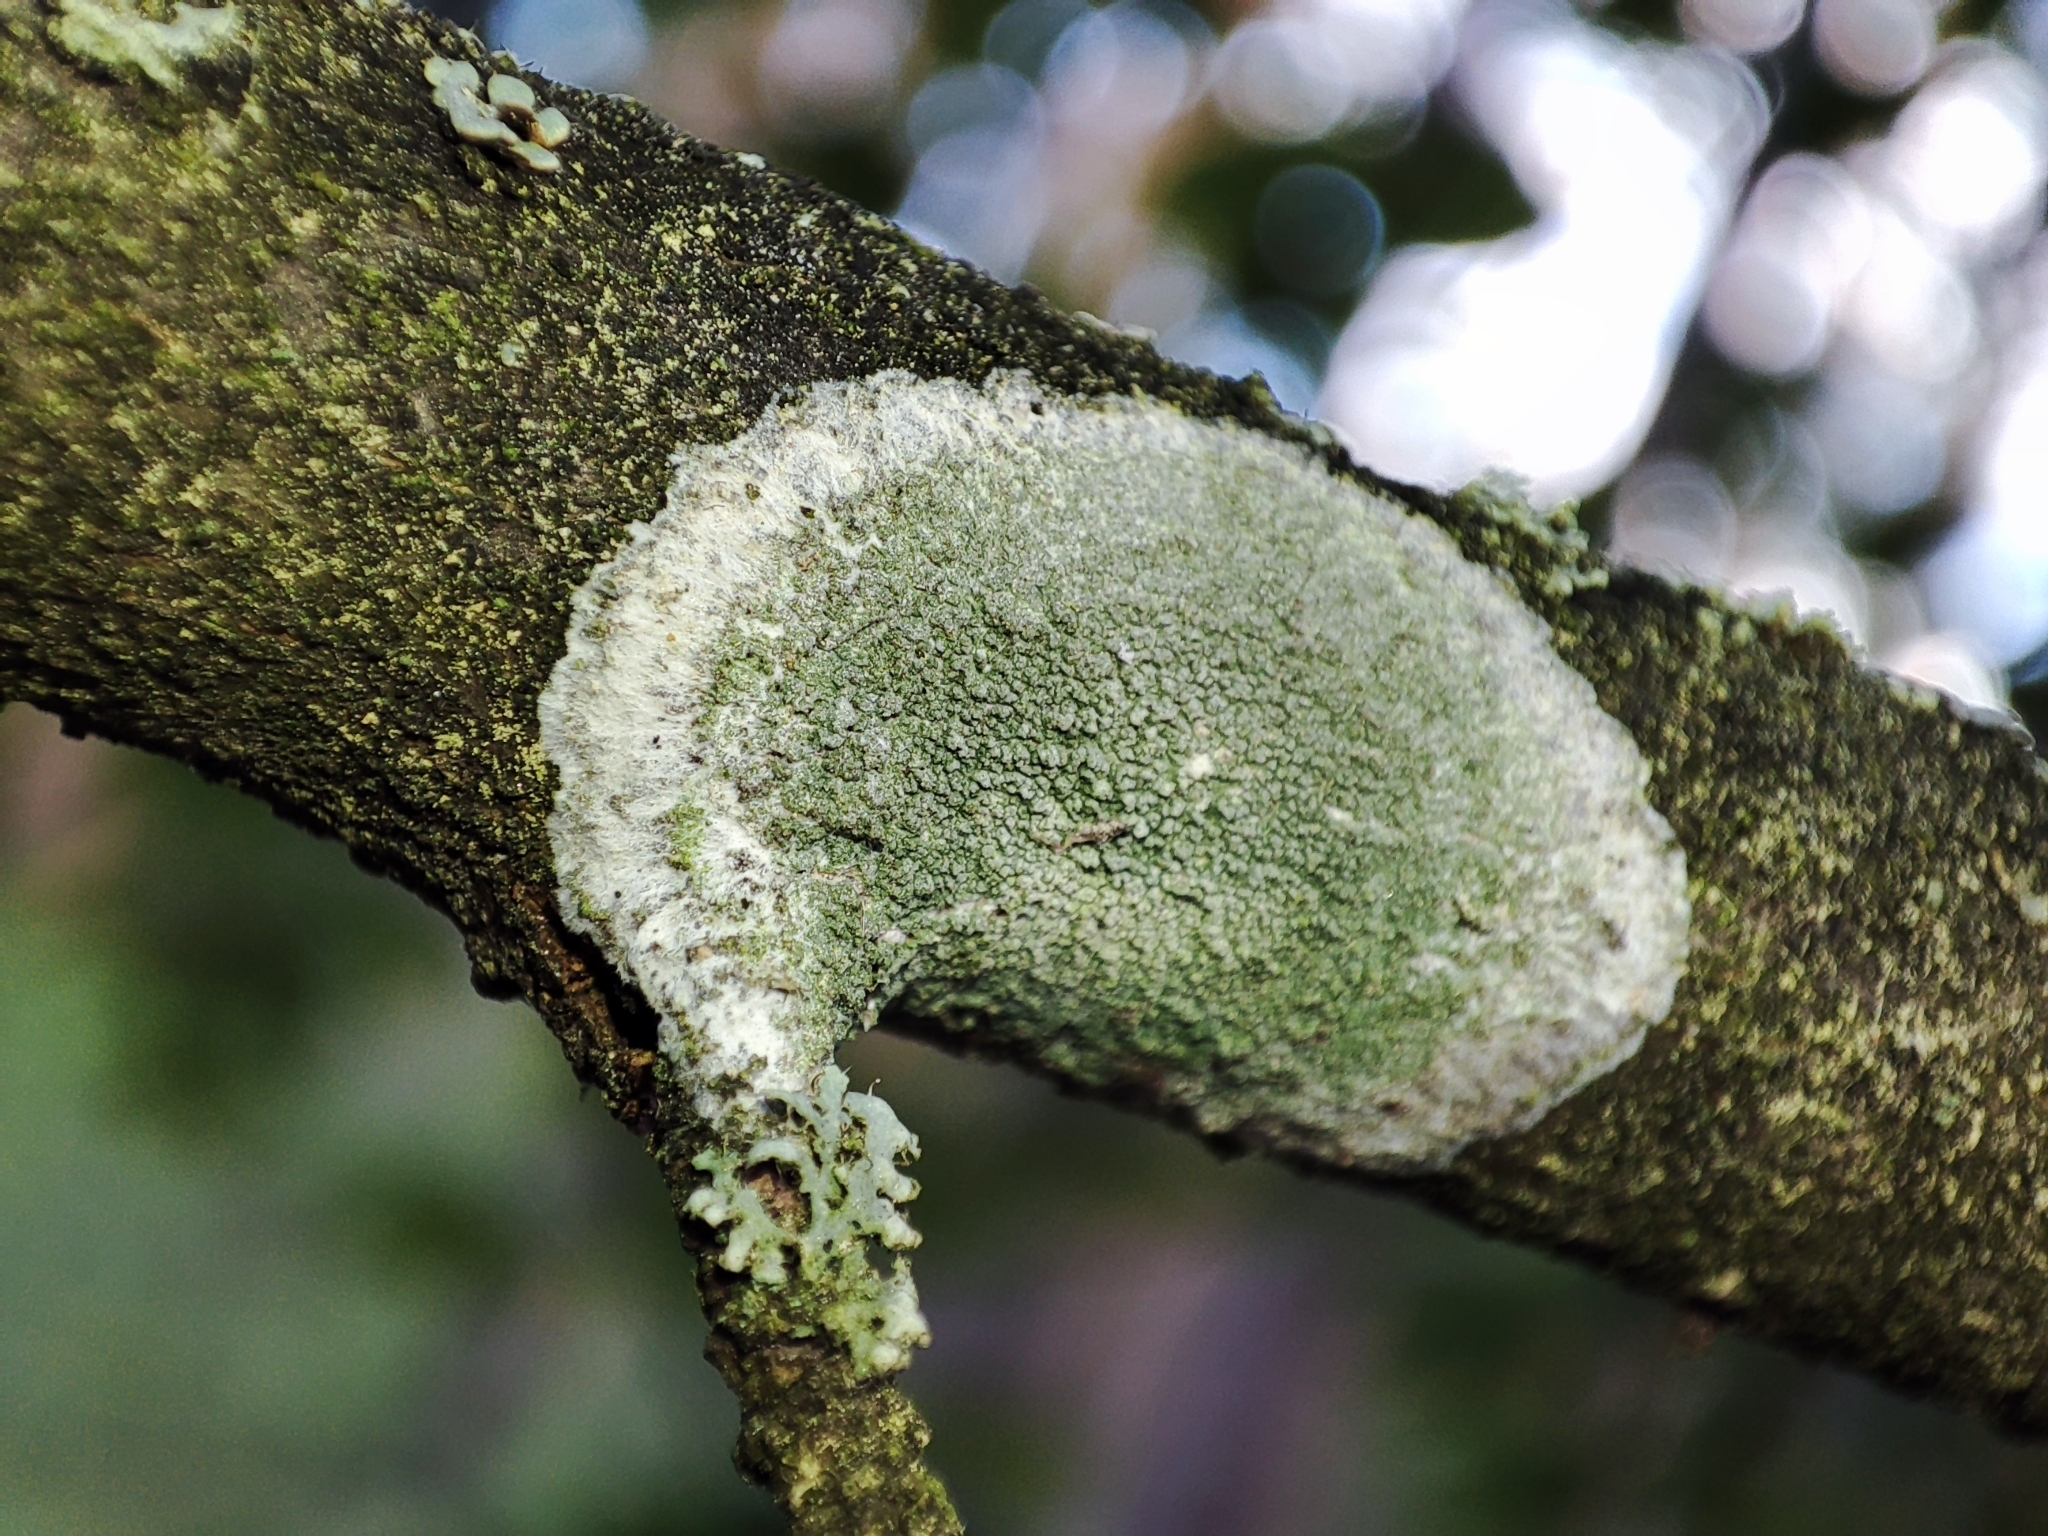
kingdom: Fungi
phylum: Ascomycota
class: Lecanoromycetes
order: Ostropales
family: Phlyctidaceae
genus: Phlyctis
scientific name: Phlyctis argena
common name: Whitewash lichen
